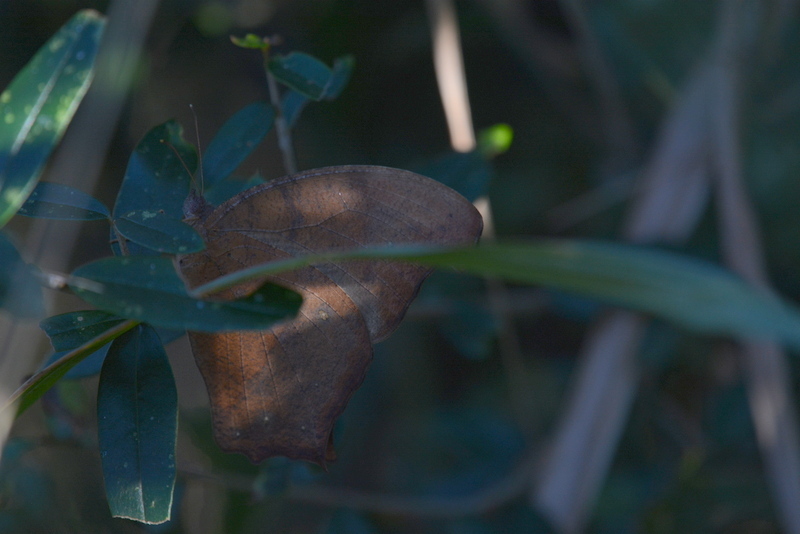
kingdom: Animalia
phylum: Arthropoda
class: Insecta
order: Lepidoptera
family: Nymphalidae
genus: Melanitis
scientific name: Melanitis leda
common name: Twilight brown
